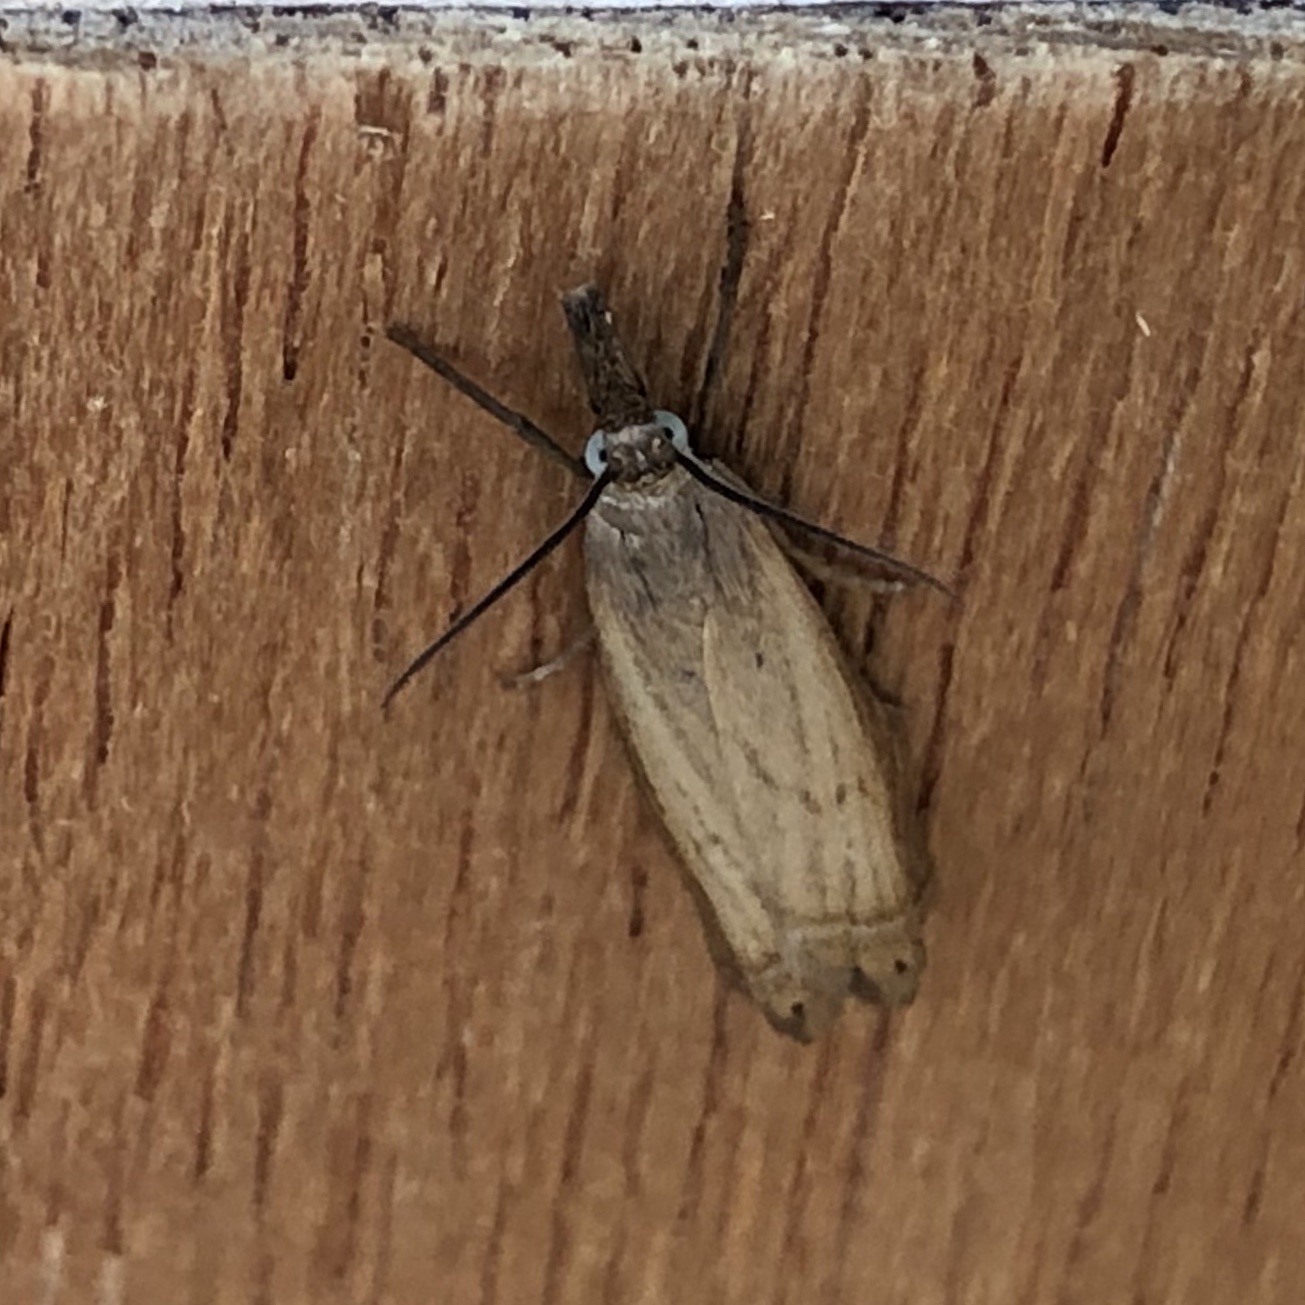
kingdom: Animalia
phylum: Arthropoda
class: Insecta
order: Lepidoptera
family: Crambidae
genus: Chrysoteuchia
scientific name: Chrysoteuchia culmella
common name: Garden grass-veneer
